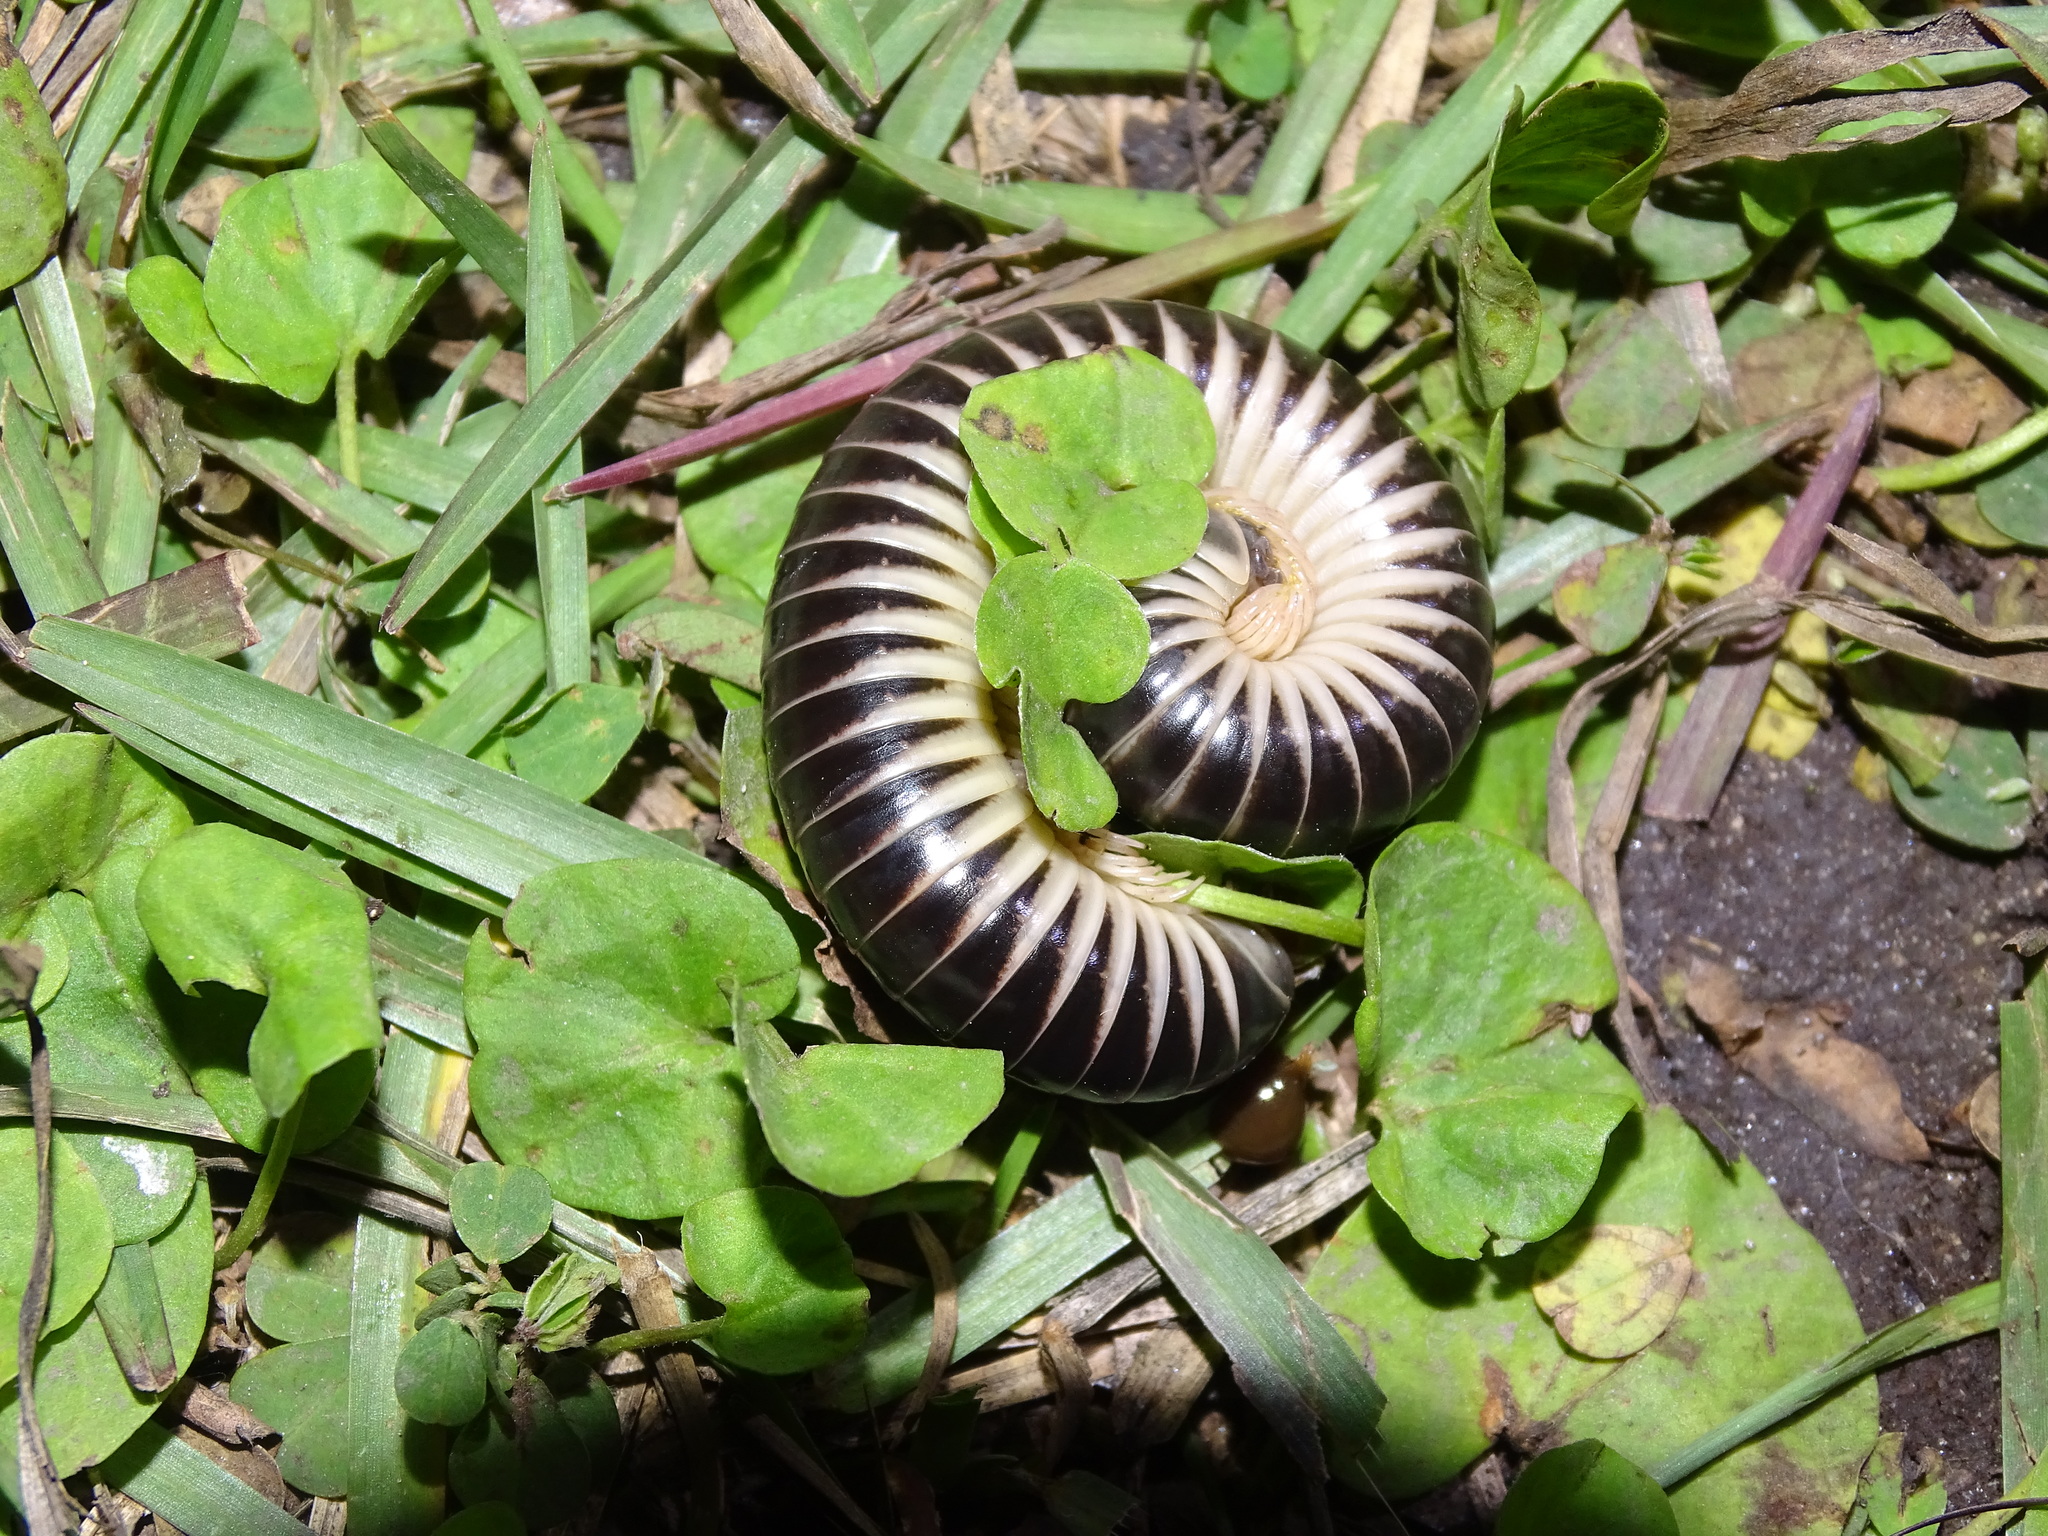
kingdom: Animalia
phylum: Arthropoda
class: Diplopoda
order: Spirobolida
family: Spirobolidae
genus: Chicobolus
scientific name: Chicobolus spinigerus
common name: Florida ivory millipede
